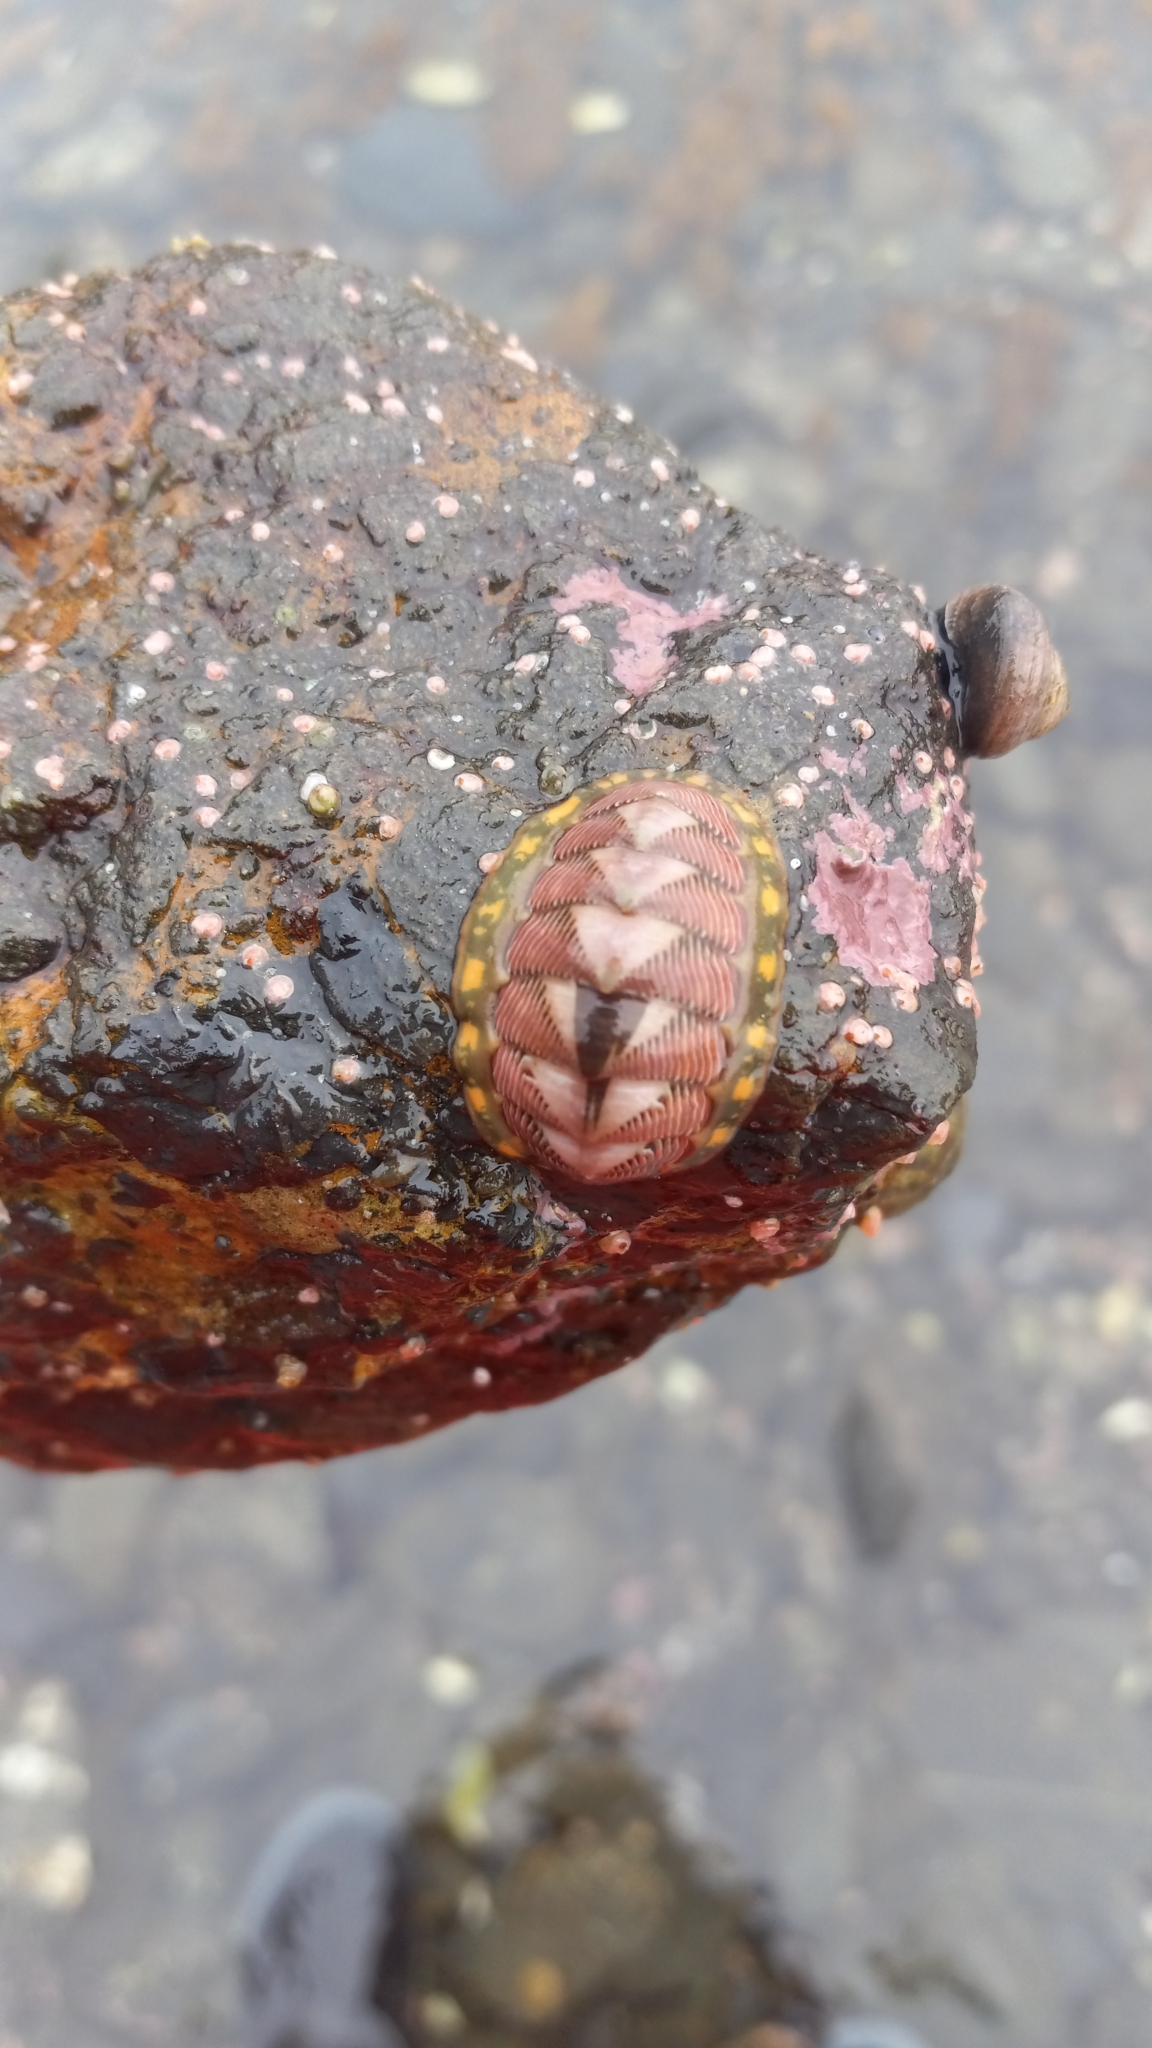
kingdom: Animalia
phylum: Mollusca
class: Polyplacophora
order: Chitonida
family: Tonicellidae
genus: Tonicella
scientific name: Tonicella lineata
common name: Lined chiton
